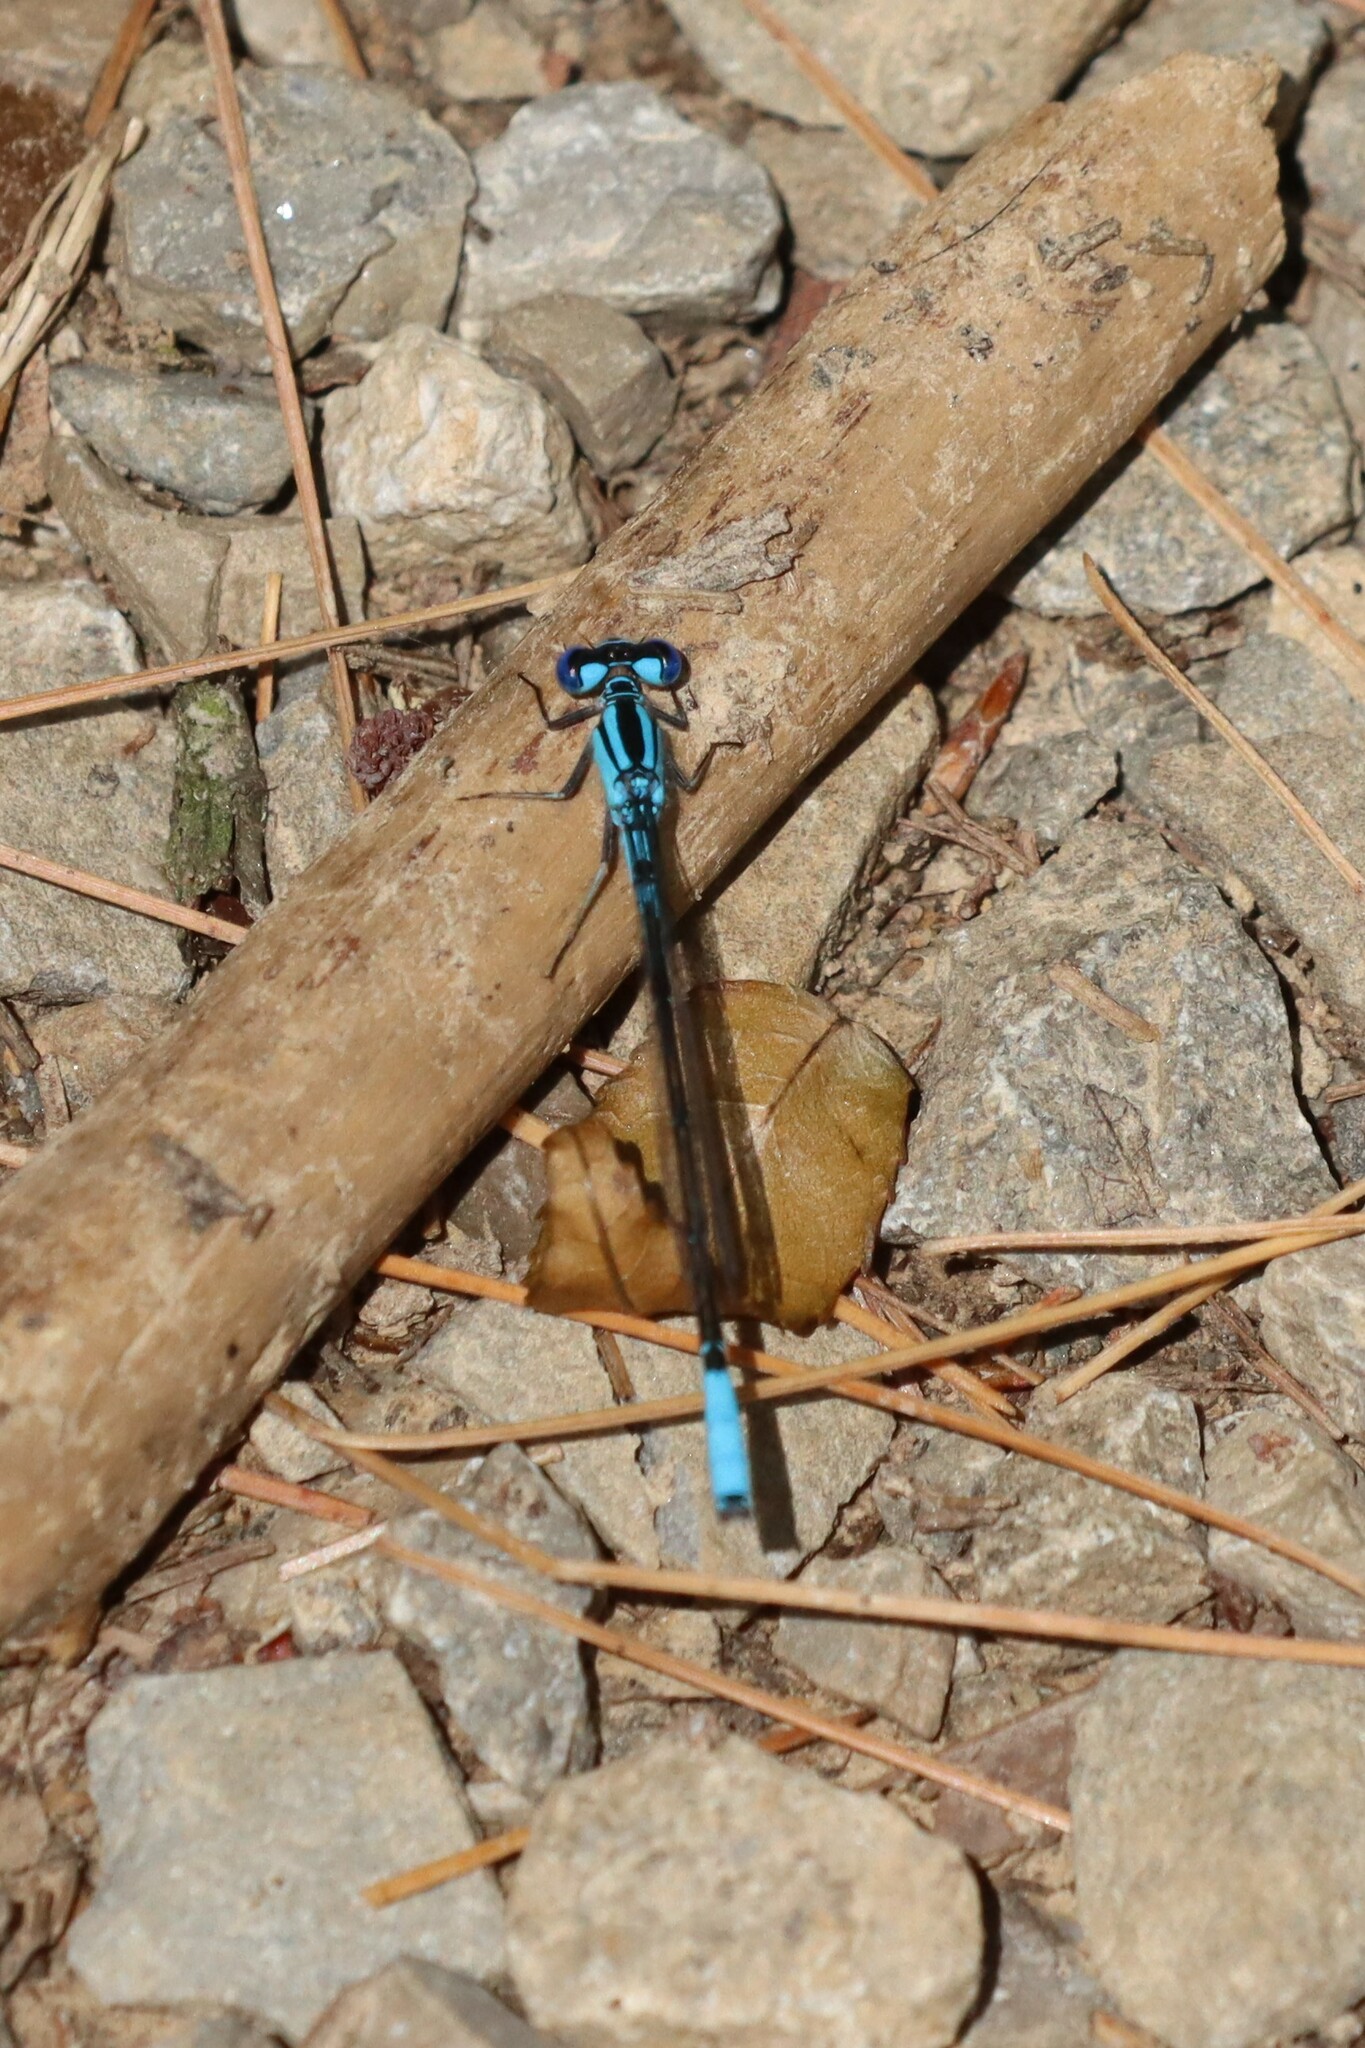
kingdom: Animalia
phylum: Arthropoda
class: Insecta
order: Odonata
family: Coenagrionidae
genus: Enallagma
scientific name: Enallagma aspersum
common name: Azure bluet
